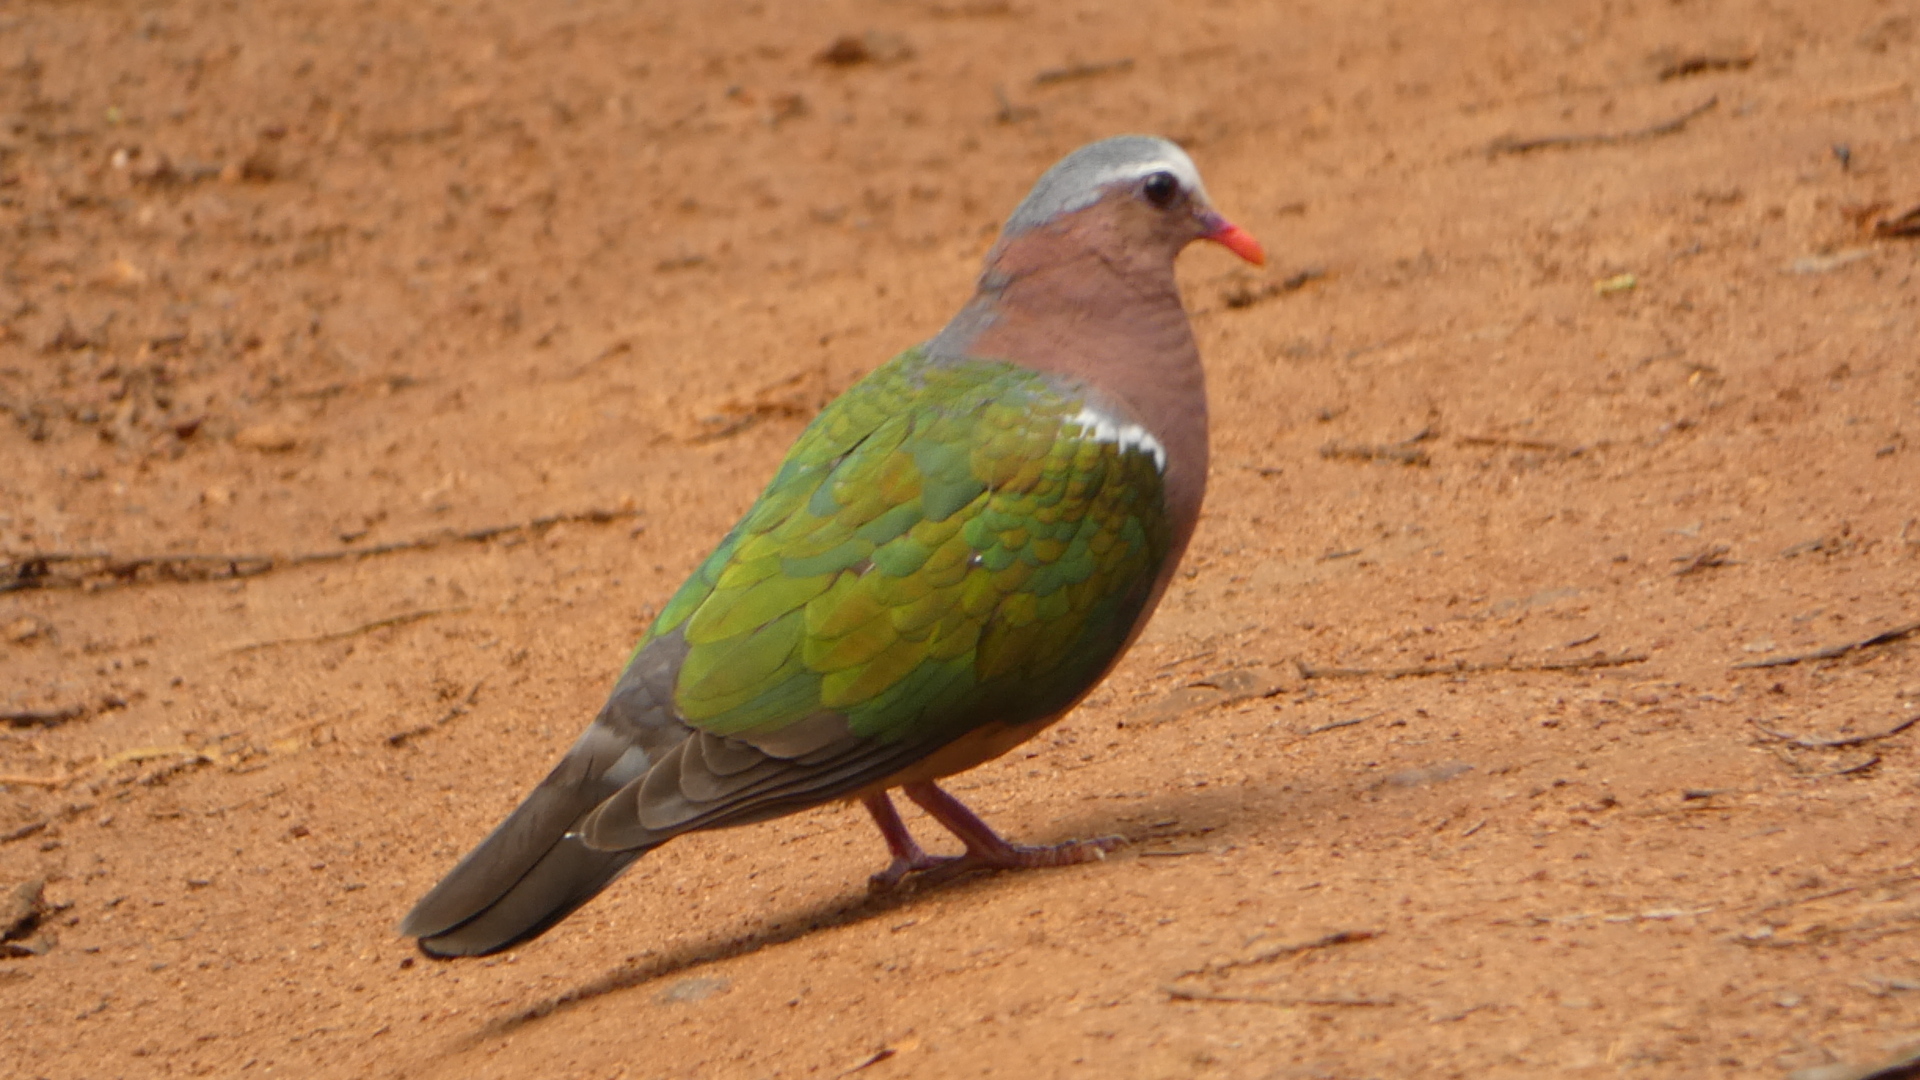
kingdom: Animalia
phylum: Chordata
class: Aves
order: Columbiformes
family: Columbidae
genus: Chalcophaps
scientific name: Chalcophaps indica
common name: Common emerald dove
